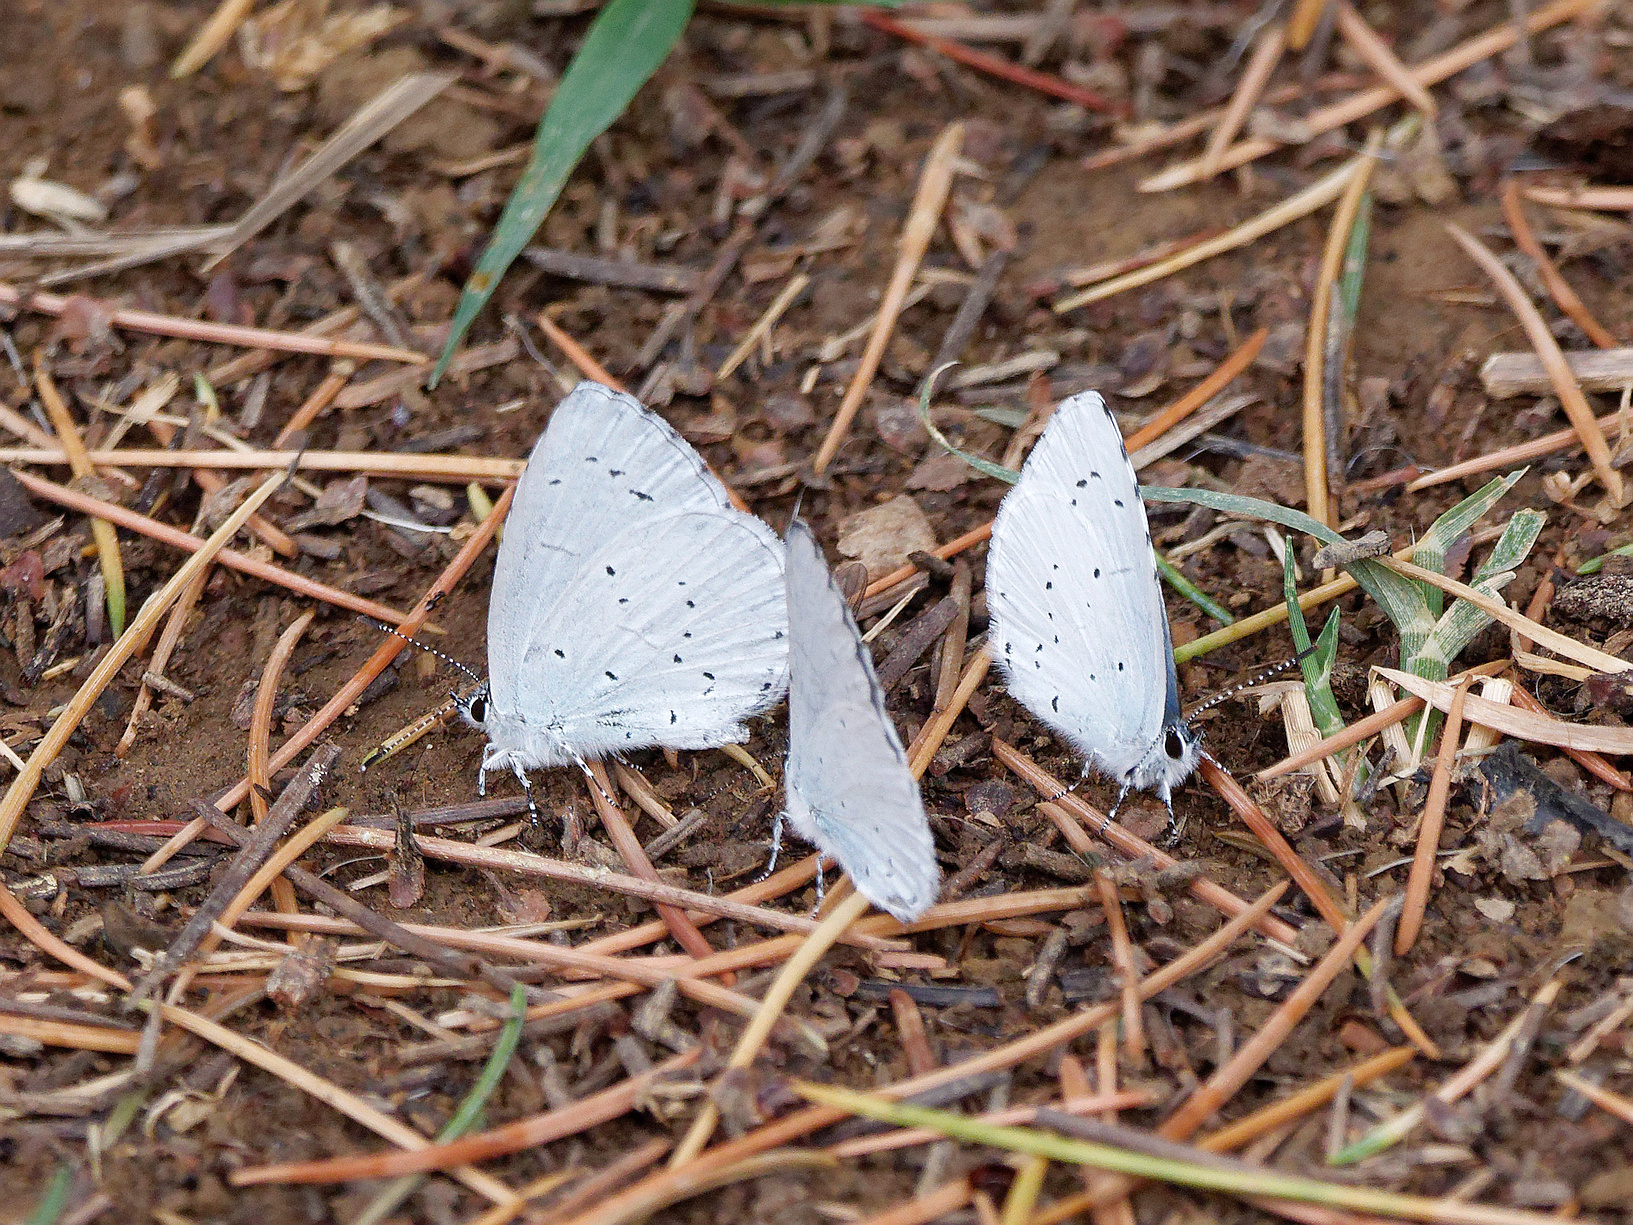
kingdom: Animalia
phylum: Arthropoda
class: Insecta
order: Lepidoptera
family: Lycaenidae
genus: Celastrina
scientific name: Celastrina argiolus
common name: Holly blue
